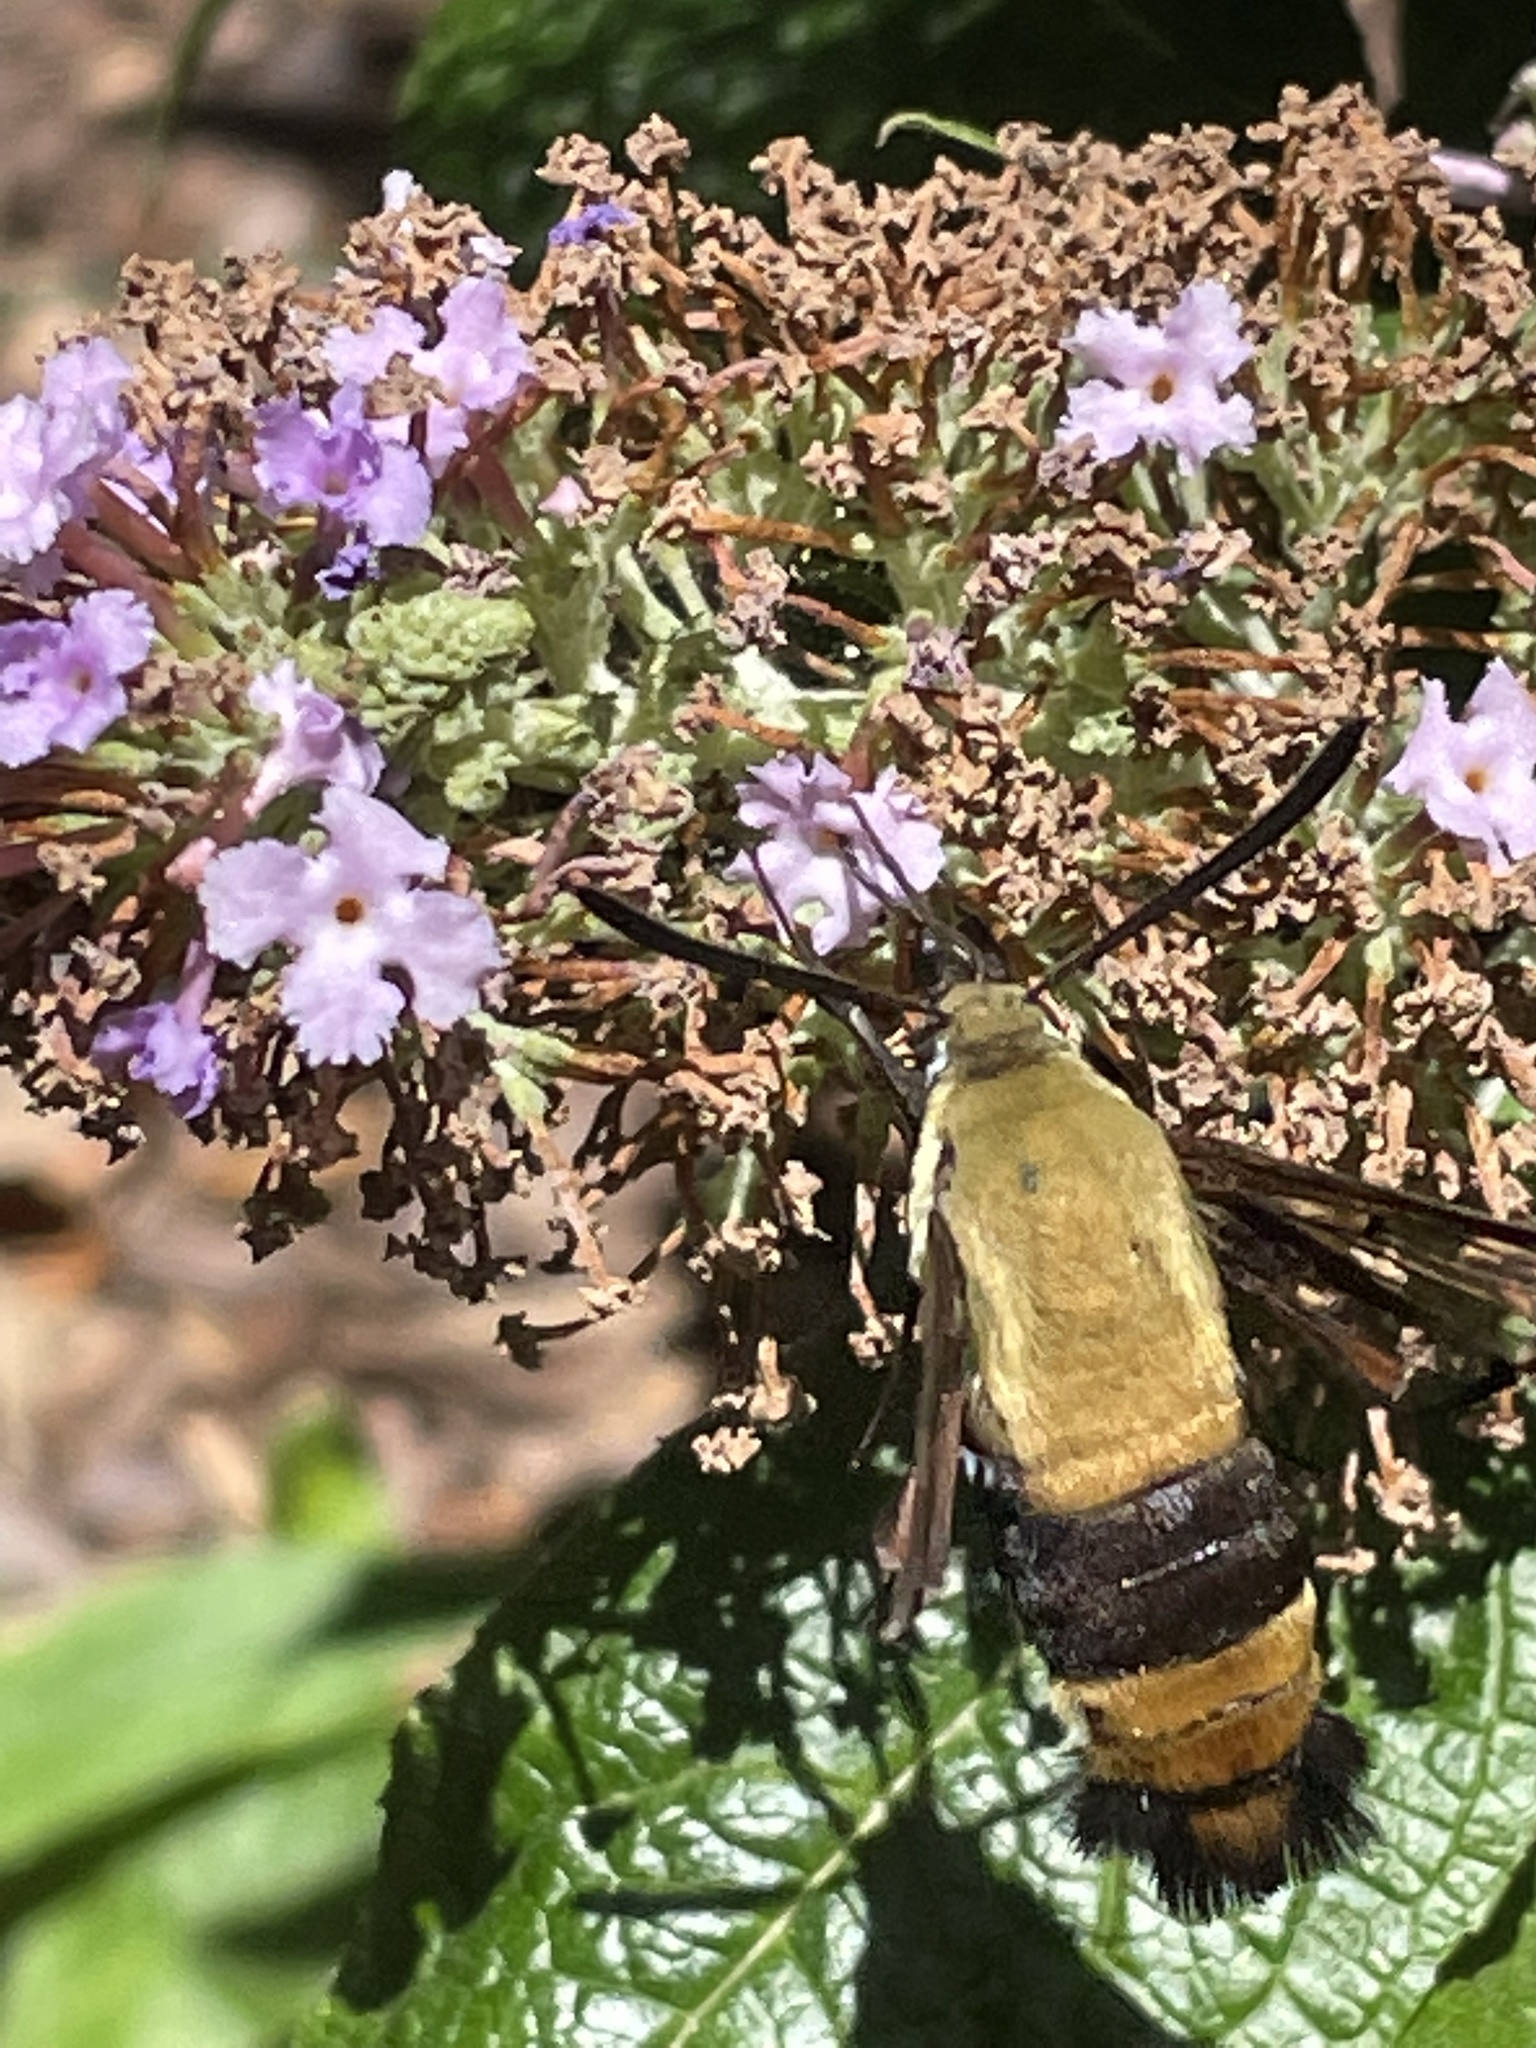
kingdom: Animalia
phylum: Arthropoda
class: Insecta
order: Lepidoptera
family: Sphingidae
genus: Hemaris
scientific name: Hemaris diffinis
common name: Bumblebee moth
